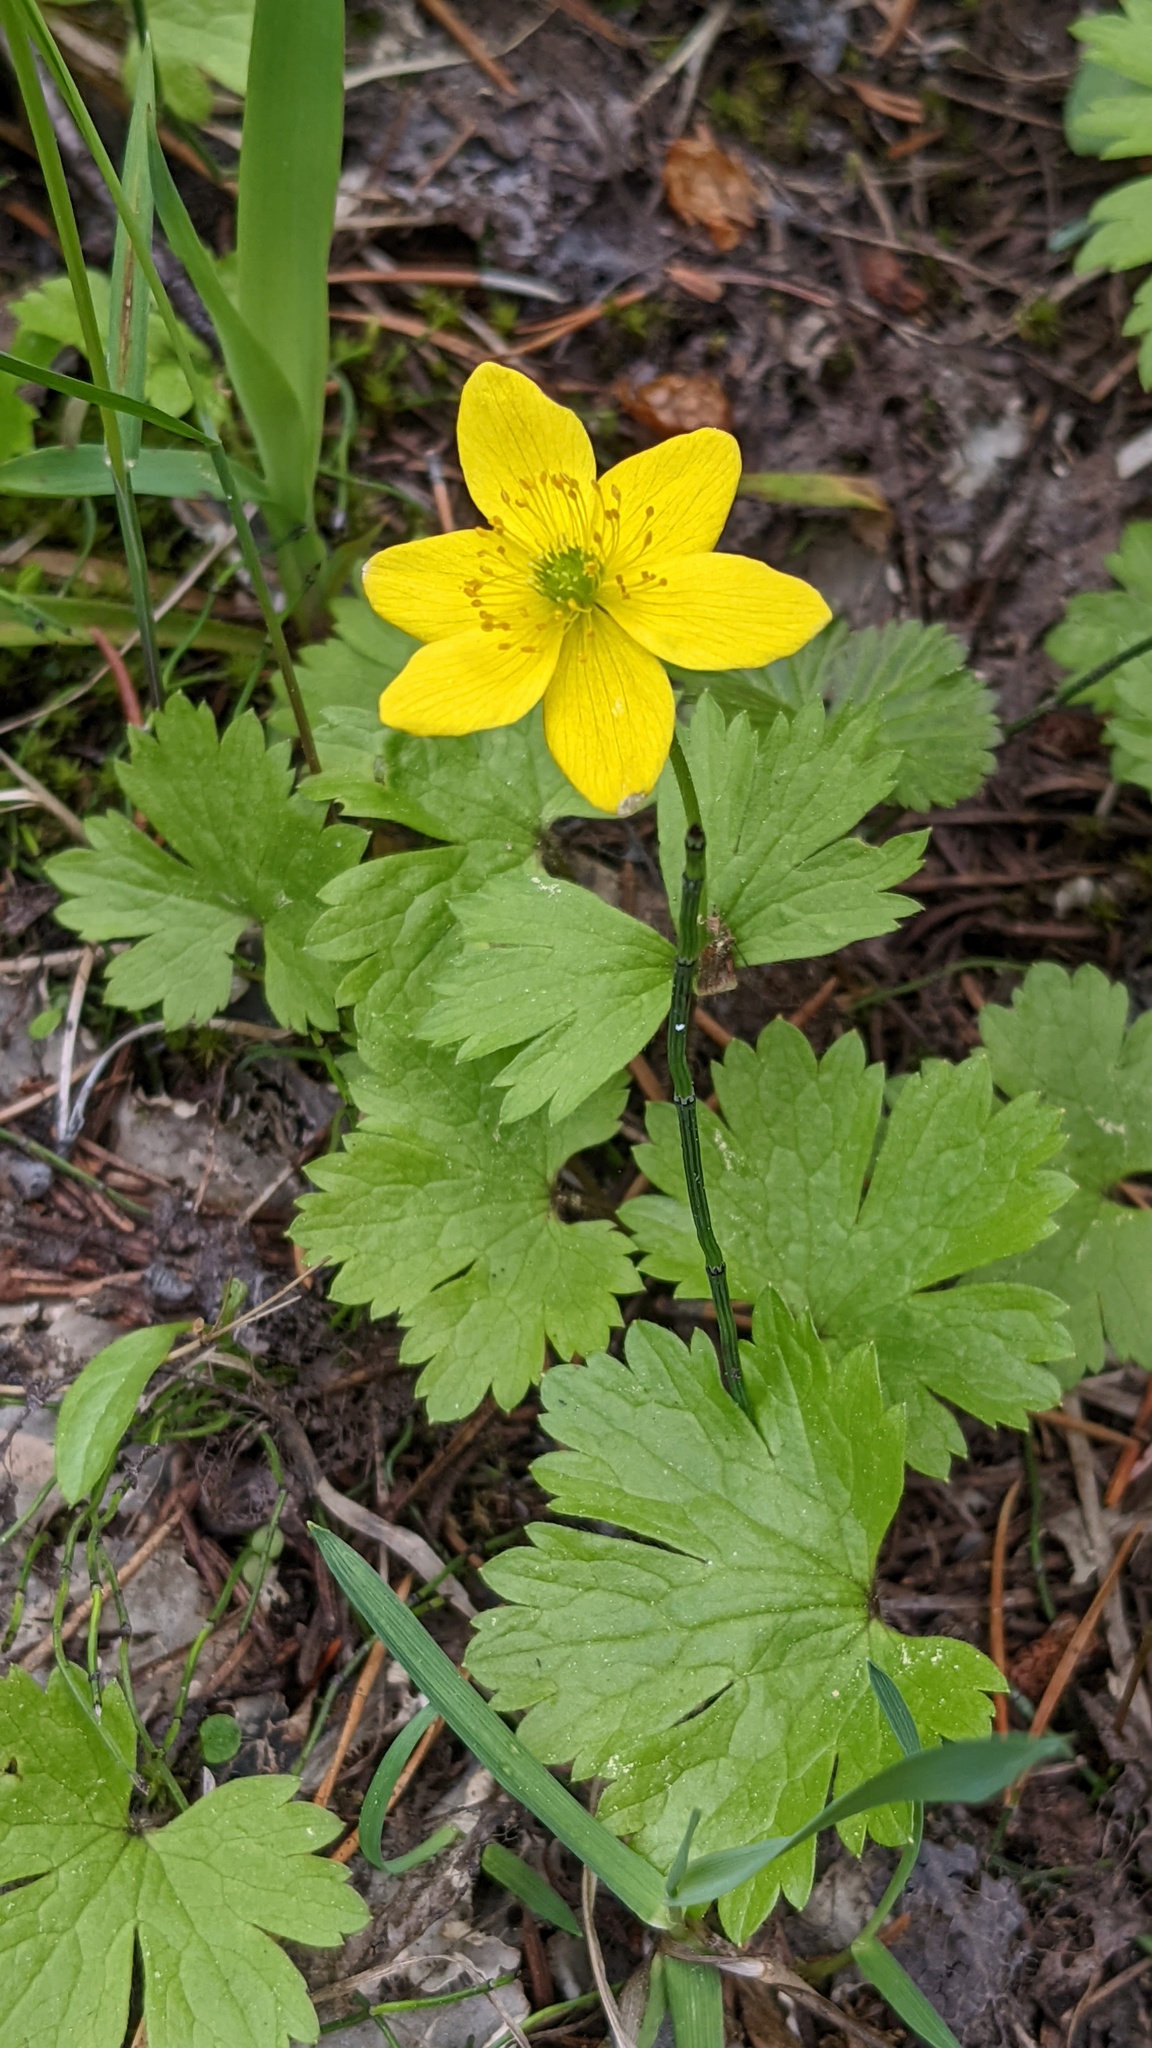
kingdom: Plantae
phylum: Tracheophyta
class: Magnoliopsida
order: Ranunculales
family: Ranunculaceae
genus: Anemonastrum
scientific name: Anemonastrum richardsonii
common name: Richardson's anemone
